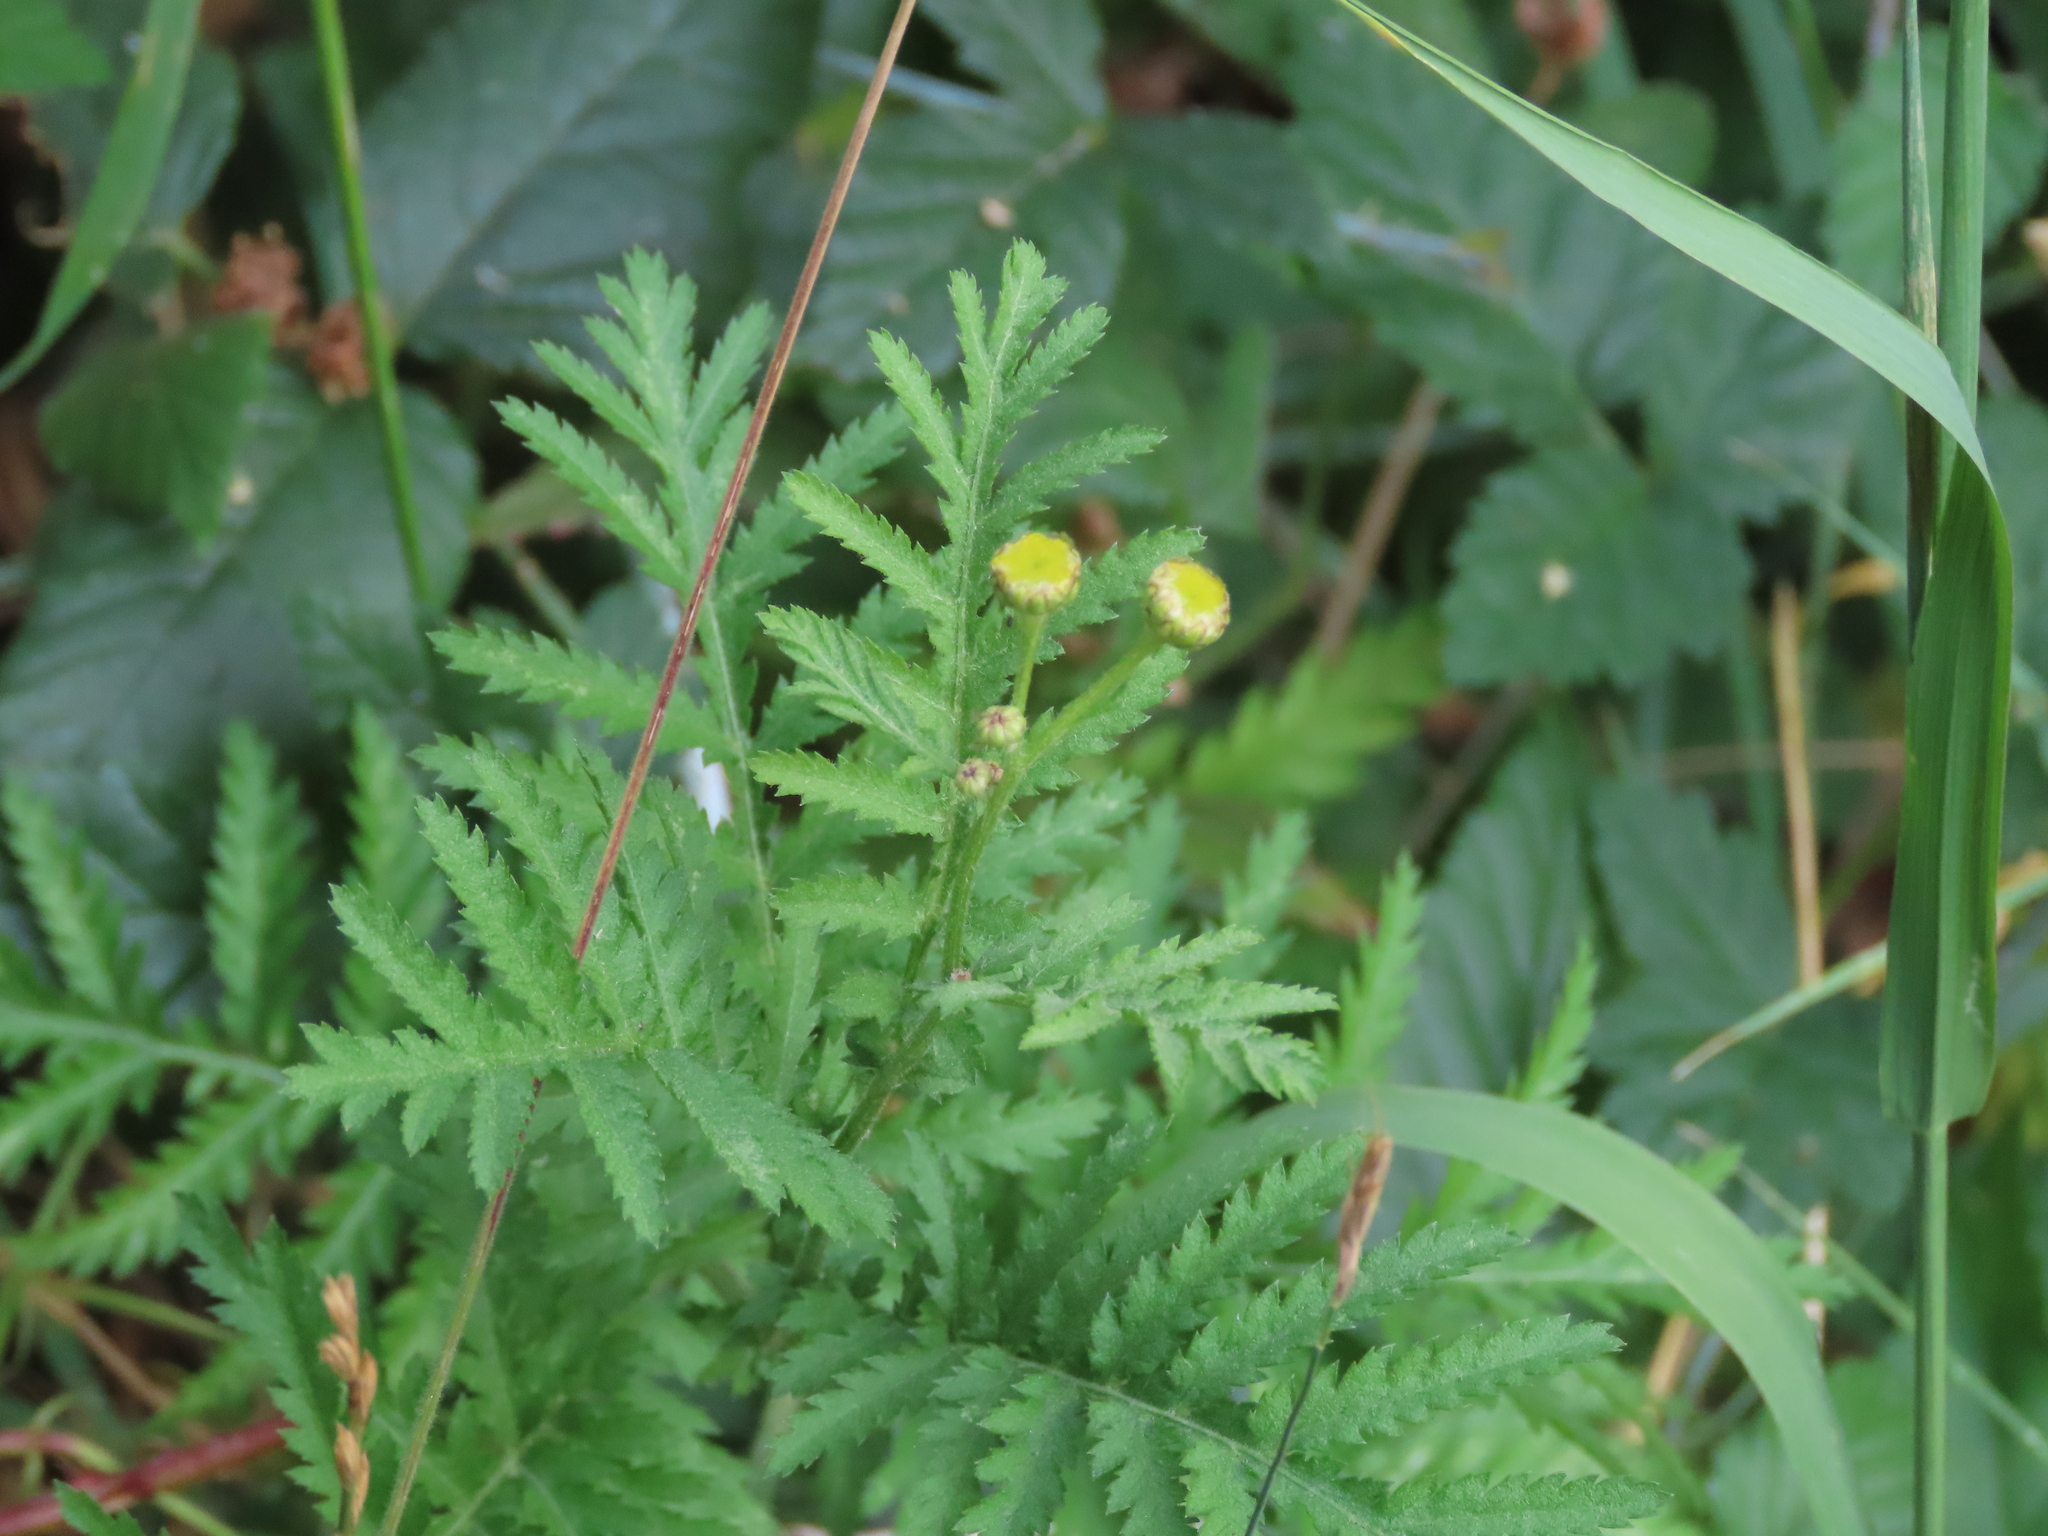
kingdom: Plantae
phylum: Tracheophyta
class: Magnoliopsida
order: Asterales
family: Asteraceae
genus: Tanacetum
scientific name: Tanacetum vulgare
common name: Common tansy
